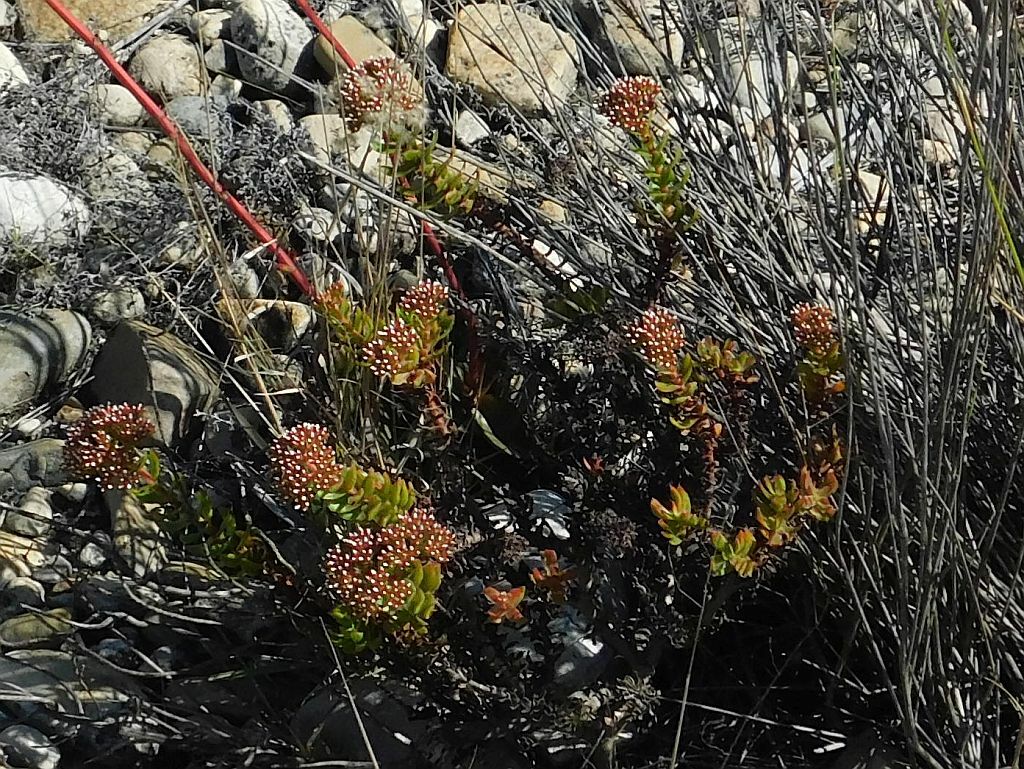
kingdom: Plantae
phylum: Tracheophyta
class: Magnoliopsida
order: Saxifragales
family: Crassulaceae
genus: Crassula
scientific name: Crassula undulata
